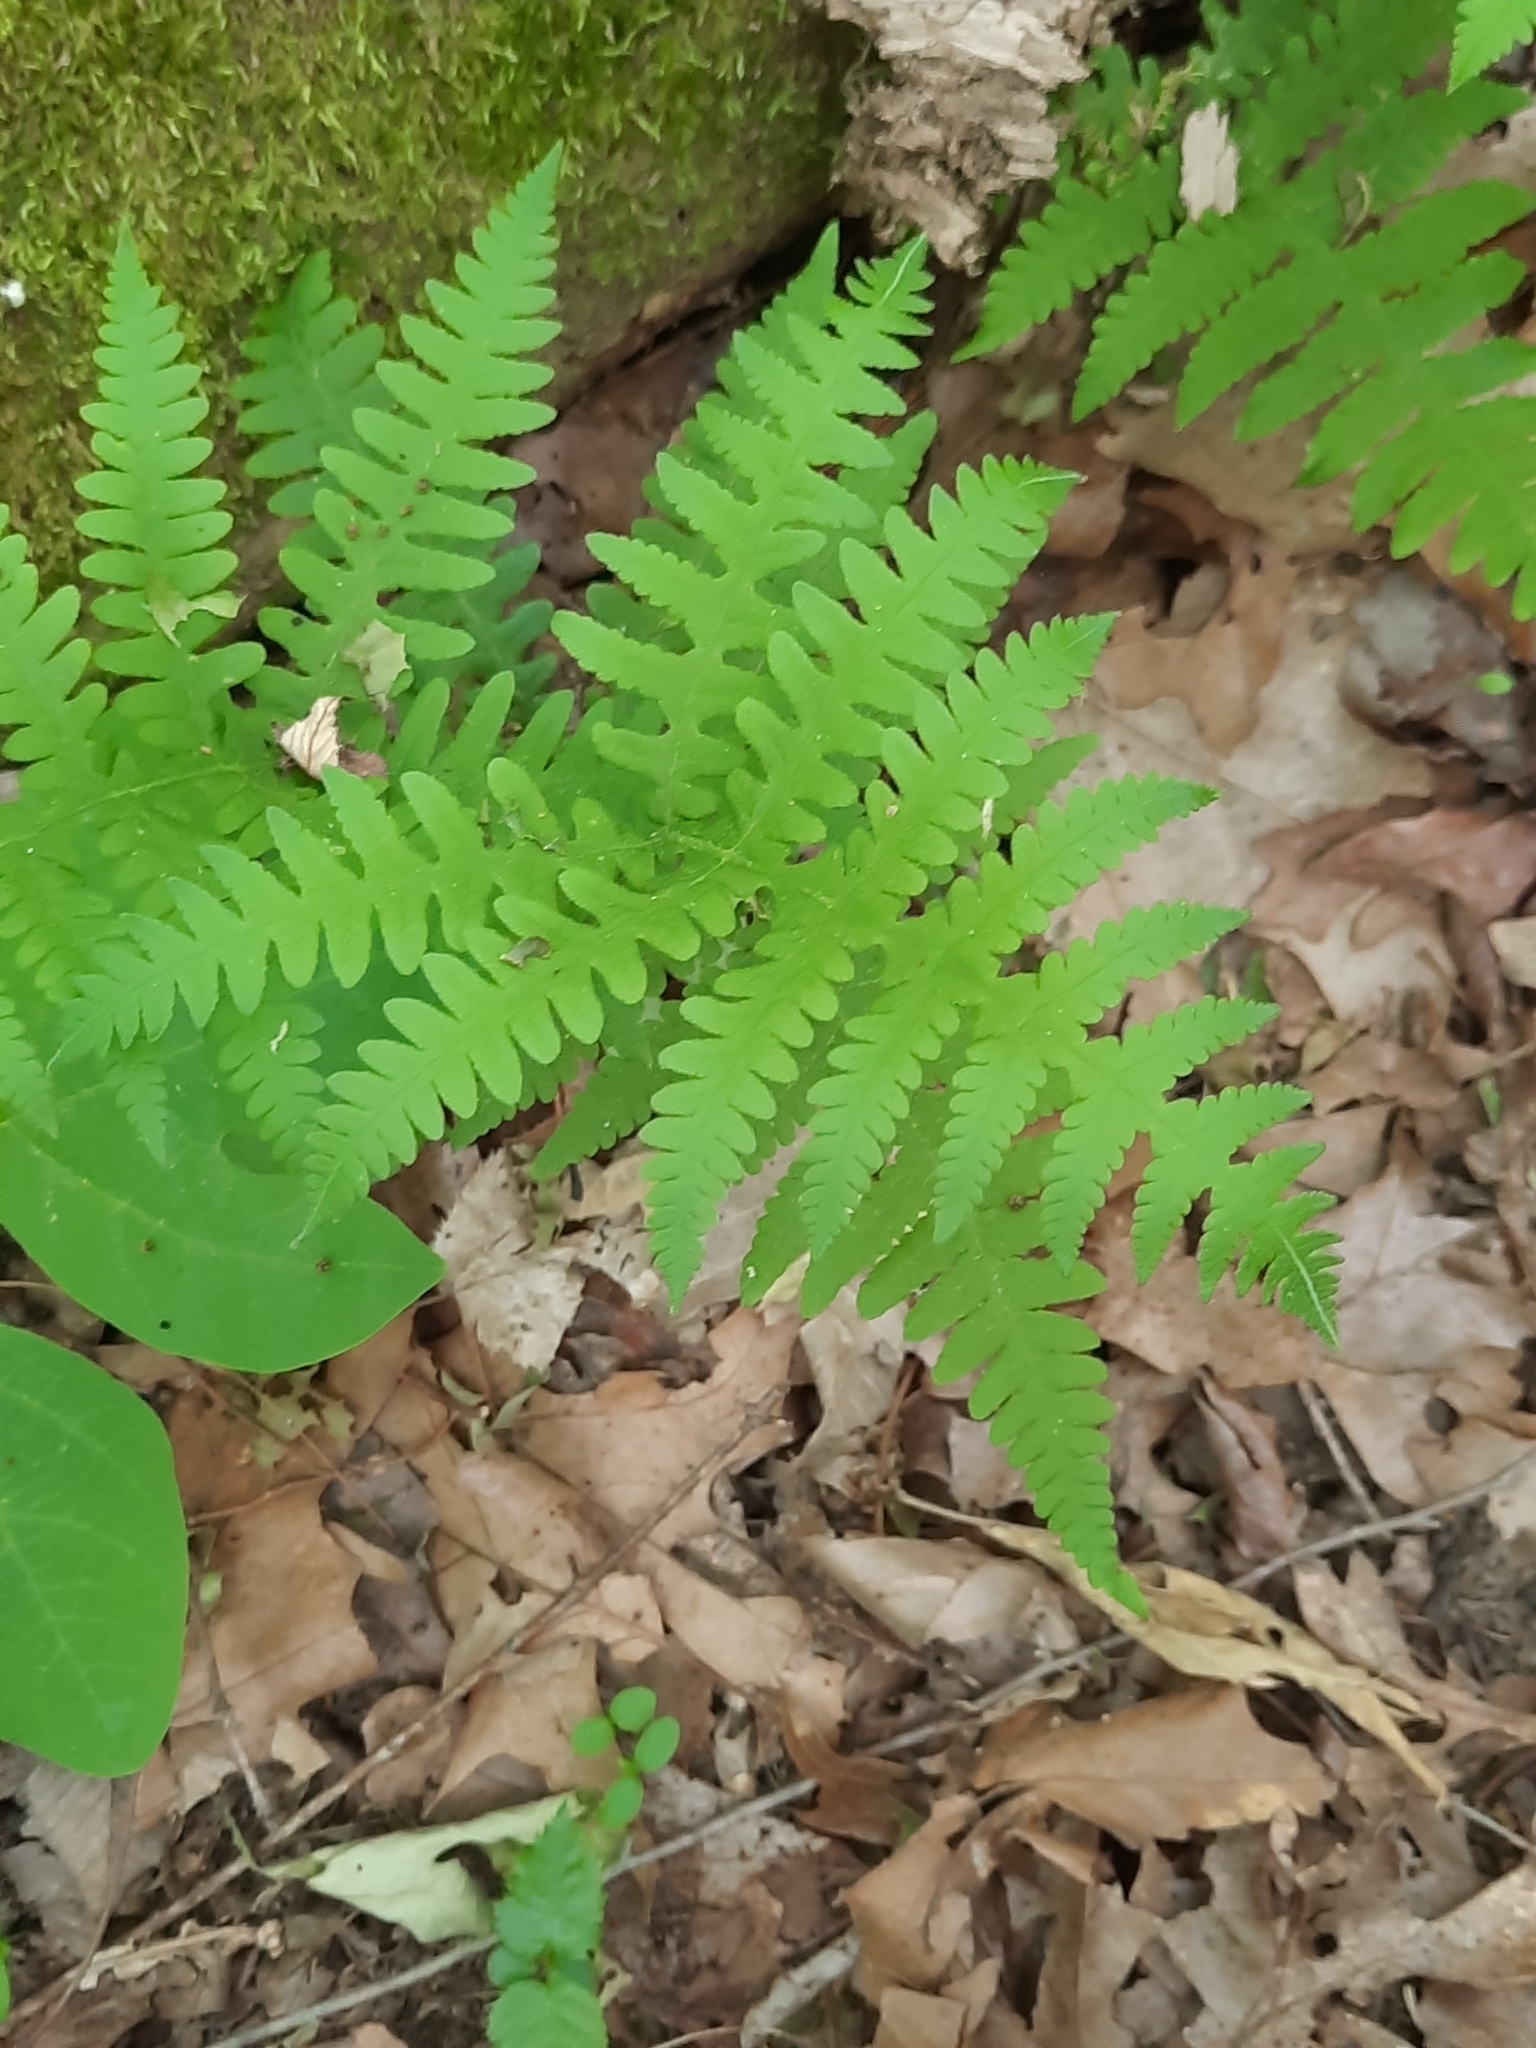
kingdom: Plantae
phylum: Tracheophyta
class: Polypodiopsida
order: Polypodiales
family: Thelypteridaceae
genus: Phegopteris
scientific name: Phegopteris hexagonoptera
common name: Broad beech fern
